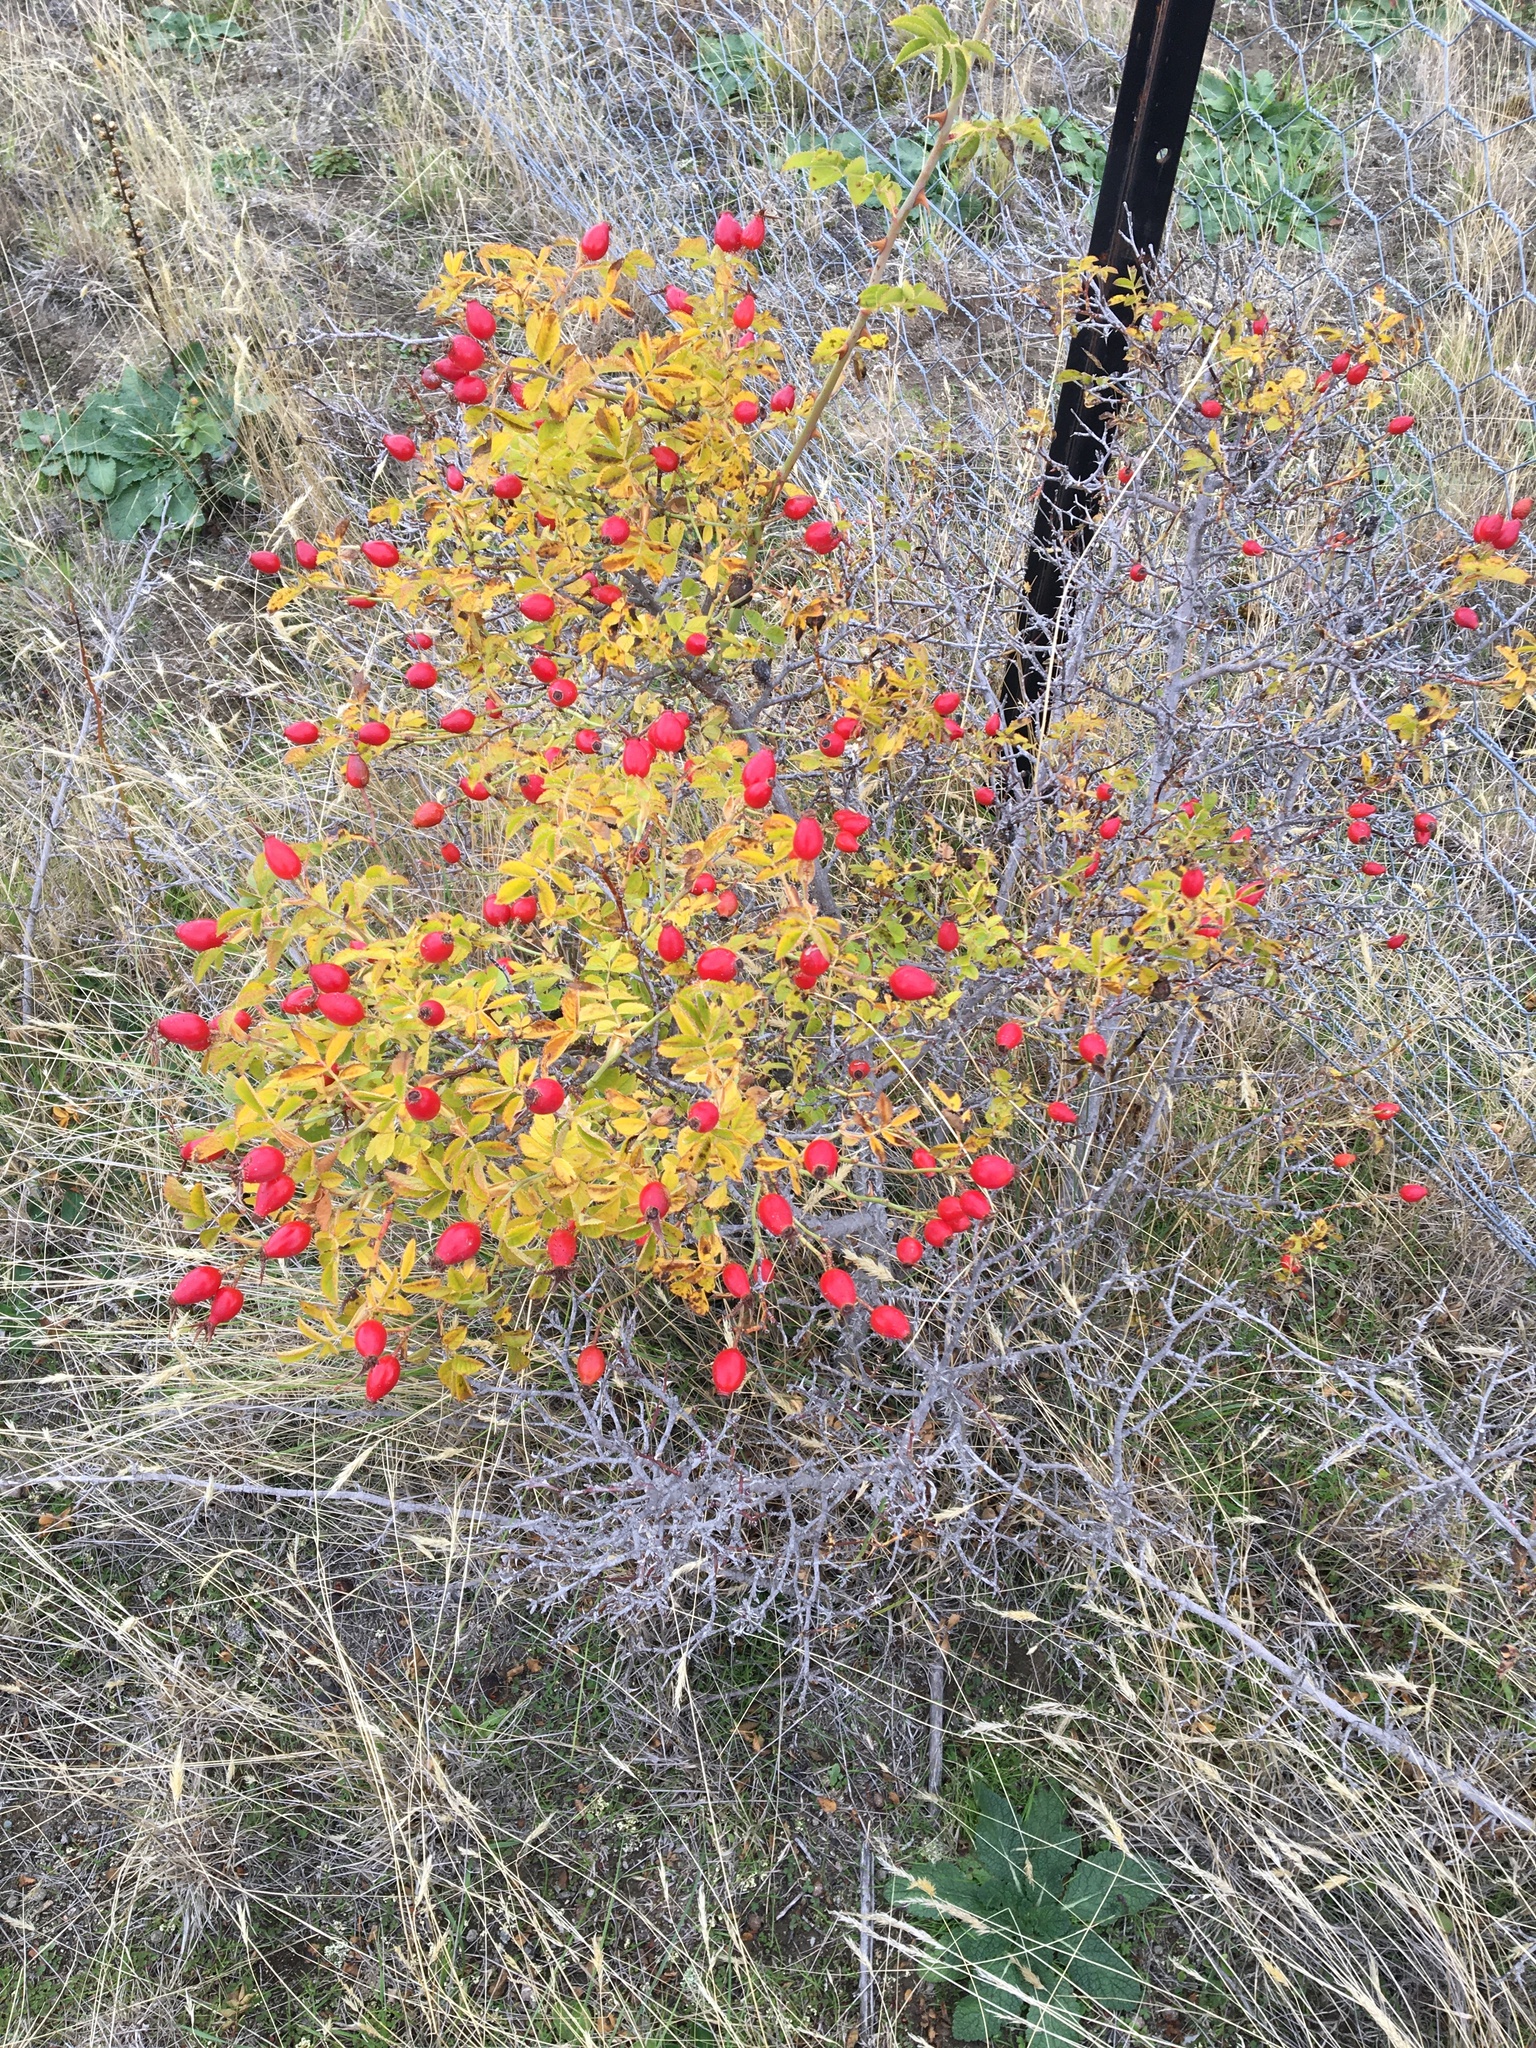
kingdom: Plantae
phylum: Tracheophyta
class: Magnoliopsida
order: Rosales
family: Rosaceae
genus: Rosa
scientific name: Rosa rubiginosa
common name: Sweet-briar
